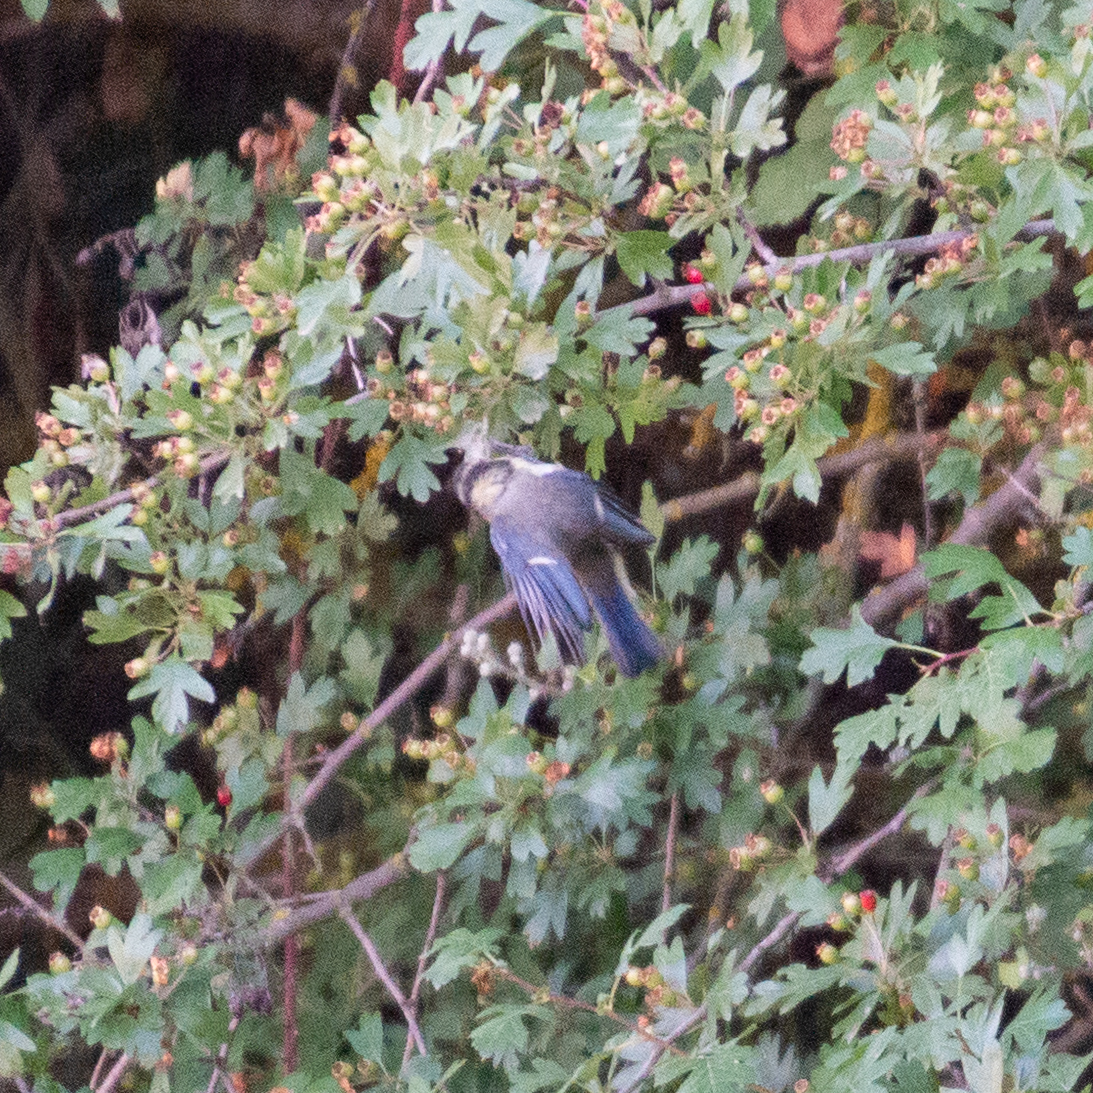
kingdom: Animalia
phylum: Chordata
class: Aves
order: Passeriformes
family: Paridae
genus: Cyanistes
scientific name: Cyanistes caeruleus
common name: Eurasian blue tit
